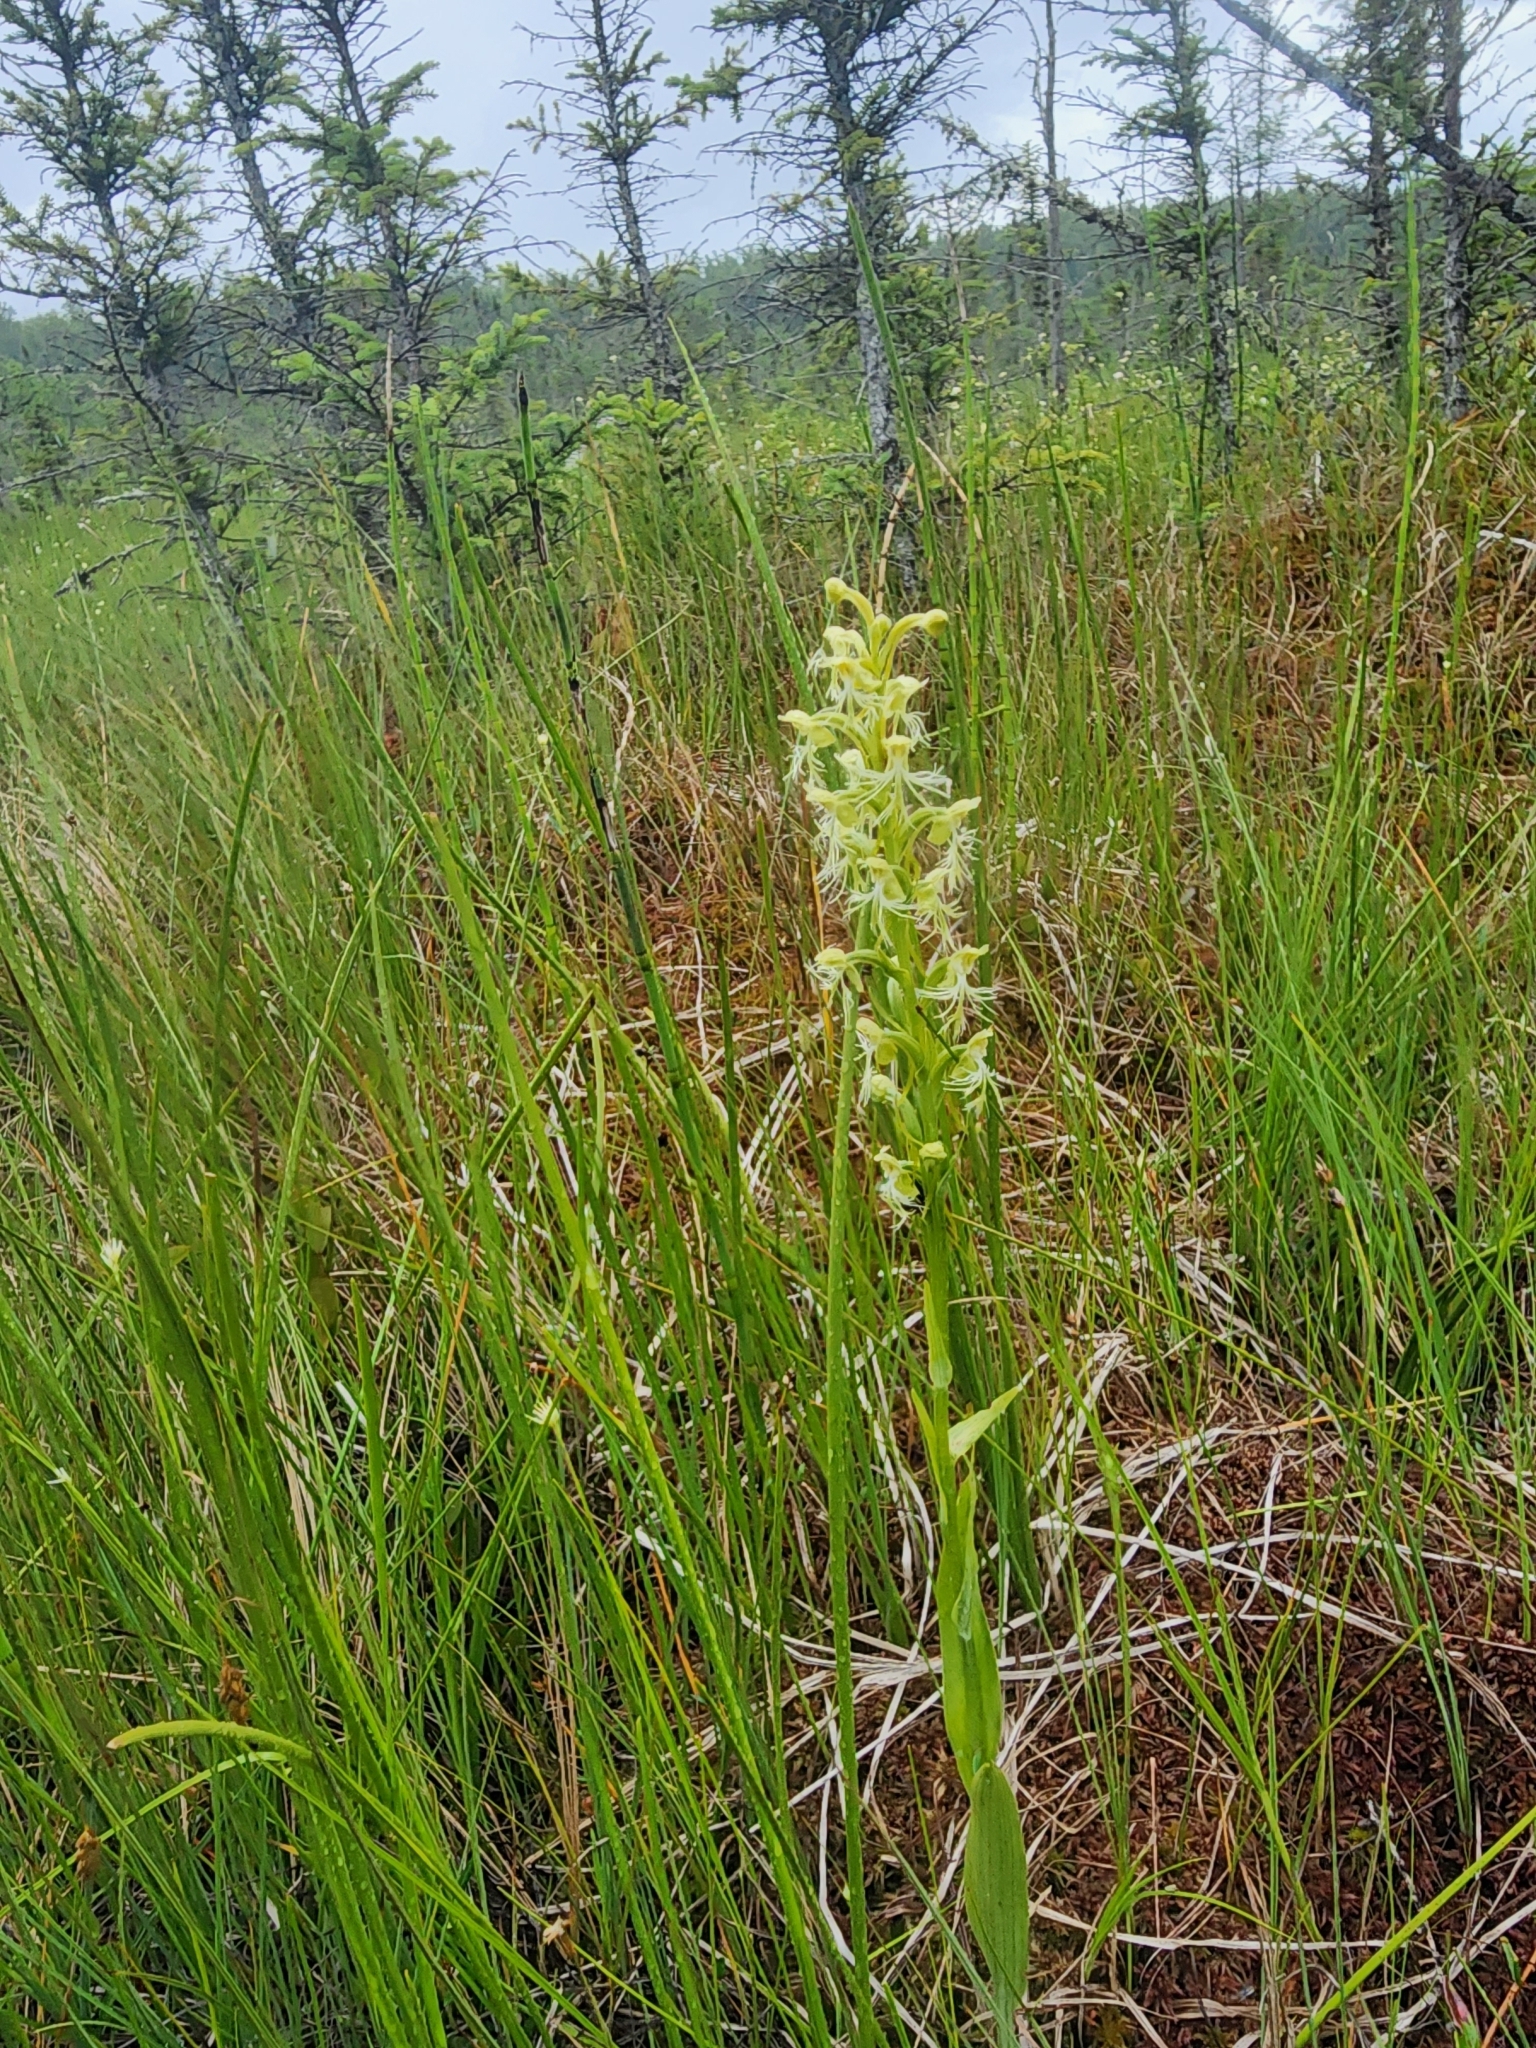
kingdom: Plantae
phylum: Tracheophyta
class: Liliopsida
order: Asparagales
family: Orchidaceae
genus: Platanthera
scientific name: Platanthera lacera
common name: Green fringed orchid
